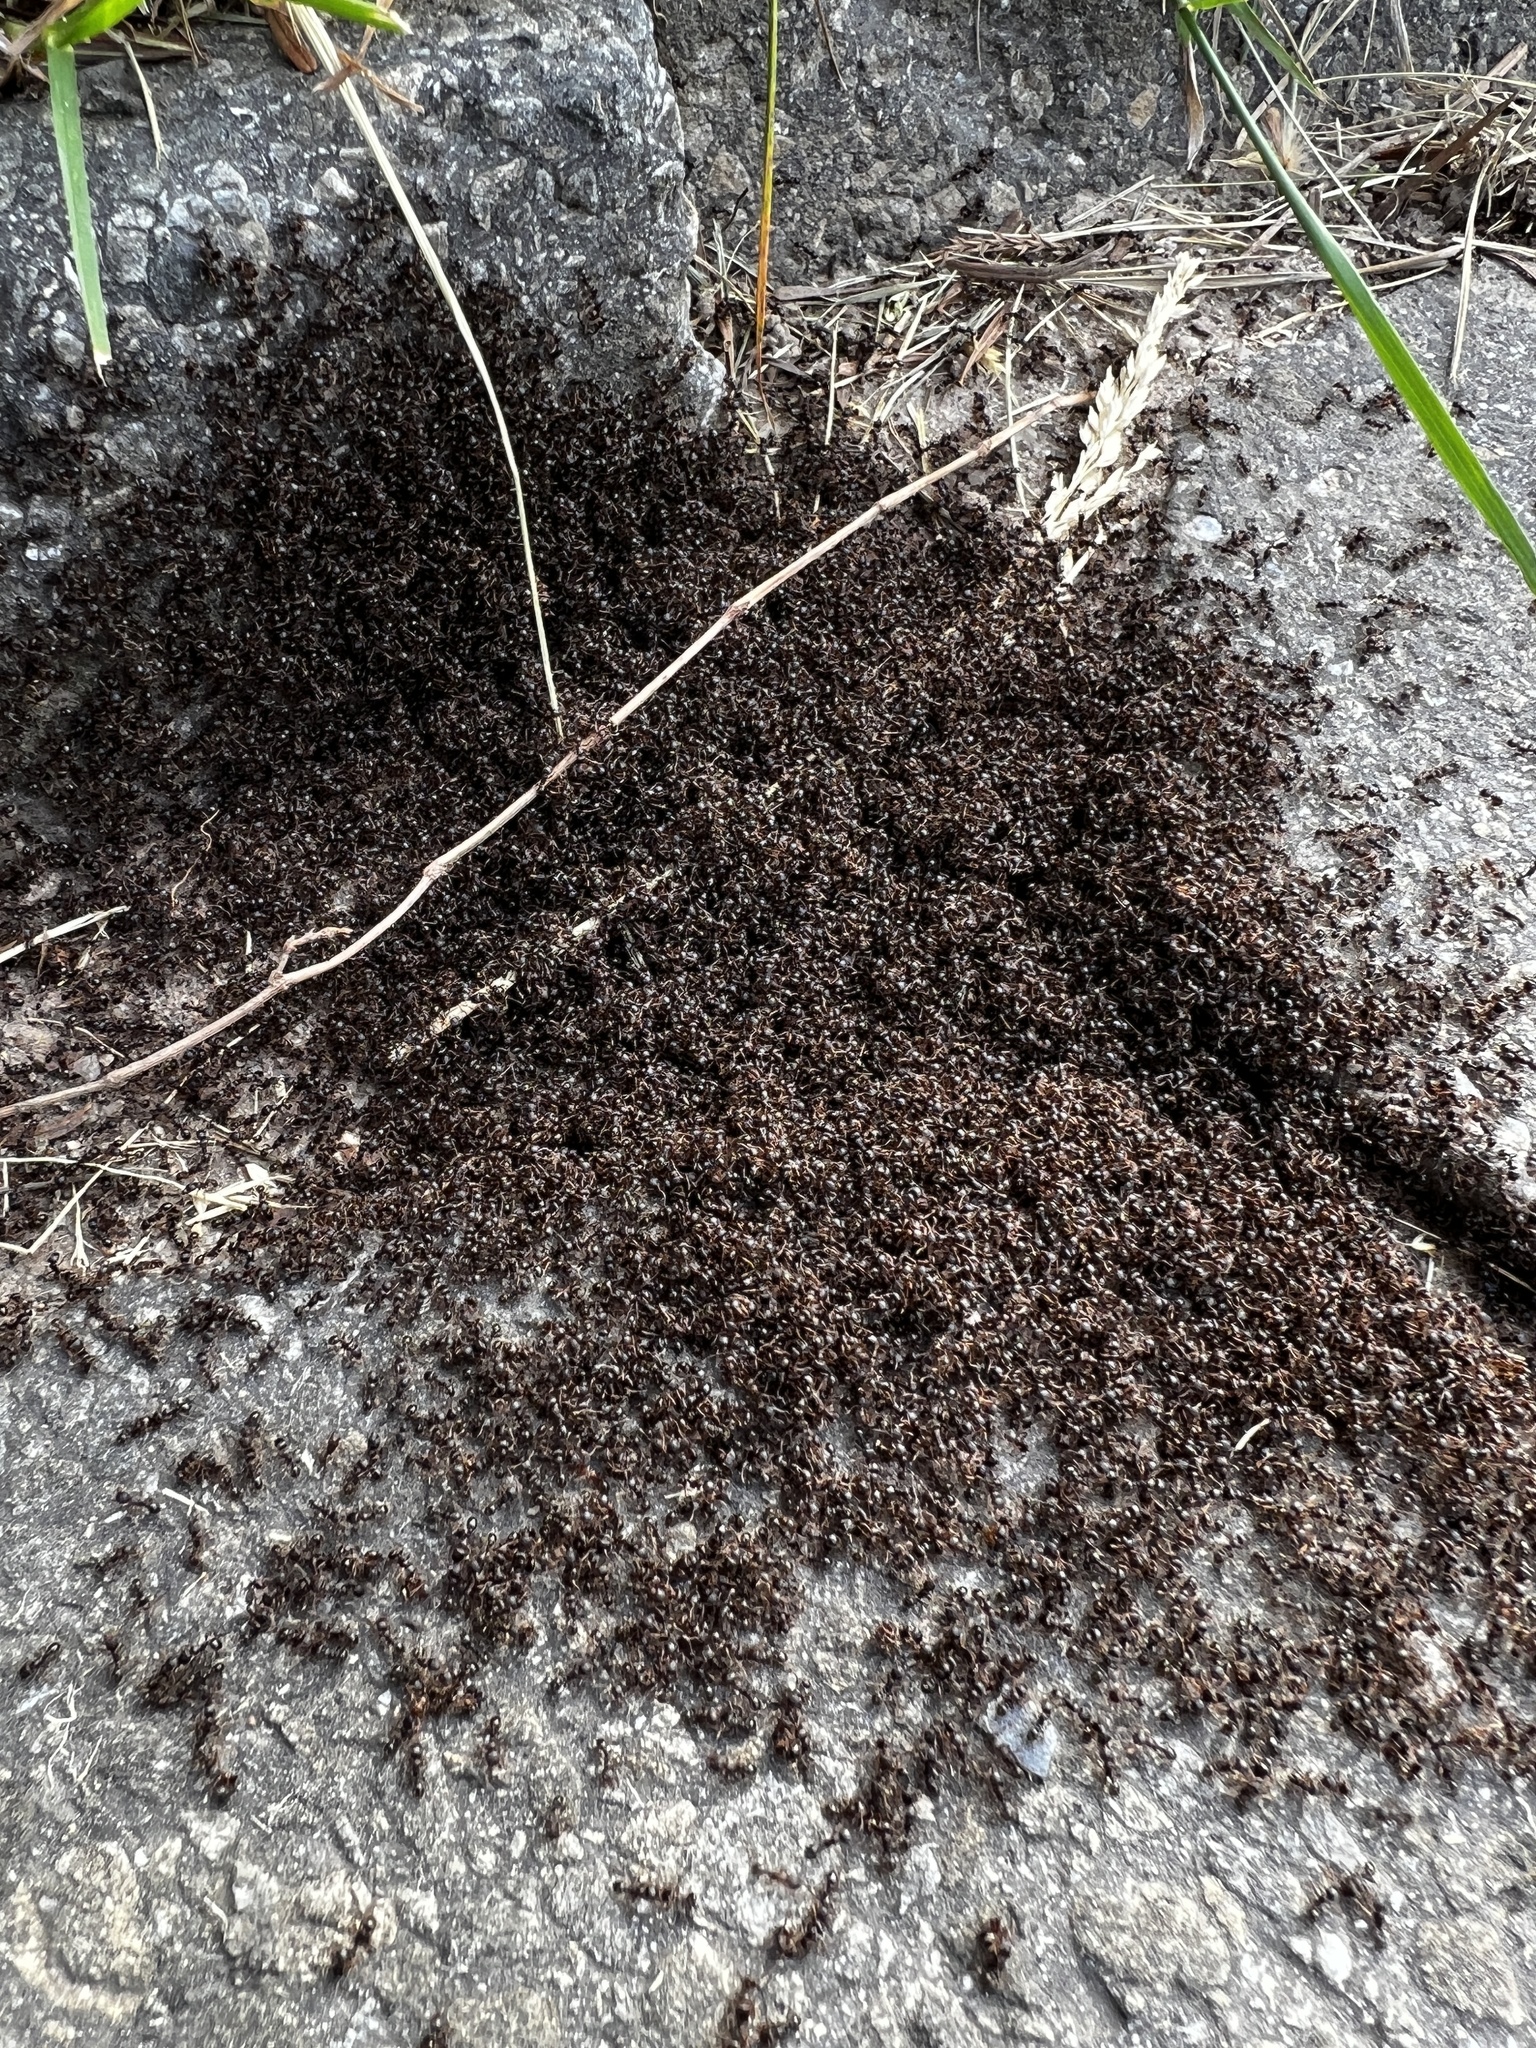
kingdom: Animalia
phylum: Arthropoda
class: Insecta
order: Hymenoptera
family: Formicidae
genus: Tetramorium
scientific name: Tetramorium immigrans
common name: Pavement ant
